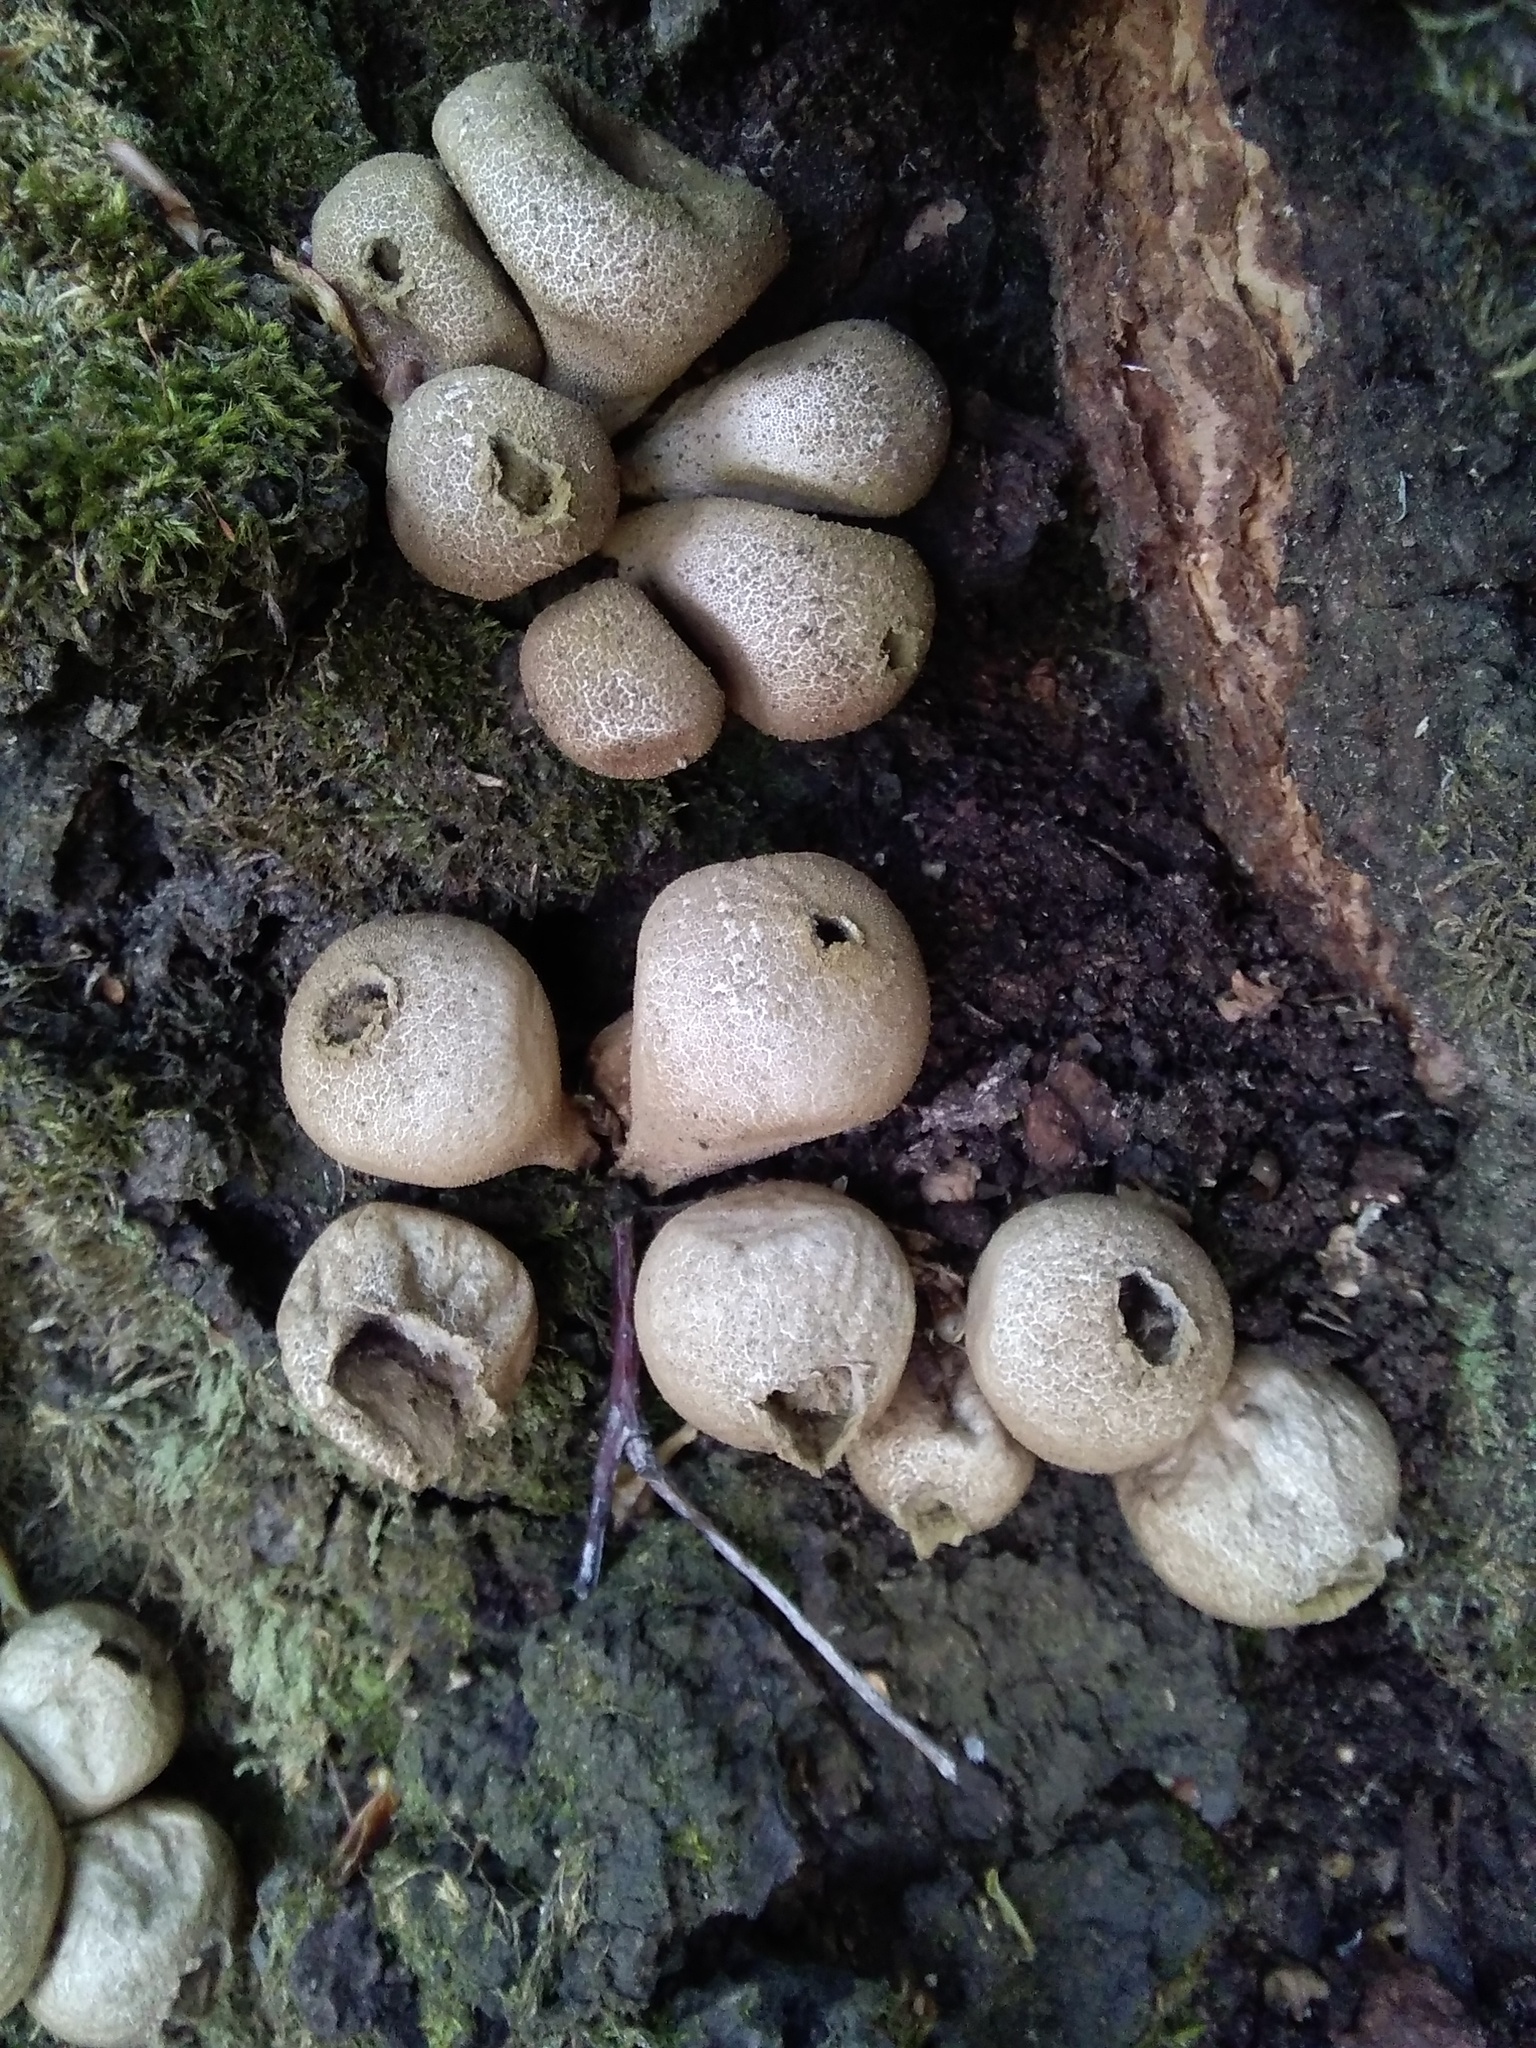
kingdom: Fungi
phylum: Basidiomycota
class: Agaricomycetes
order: Agaricales
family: Lycoperdaceae
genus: Apioperdon
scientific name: Apioperdon pyriforme
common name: Pear-shaped puffball
